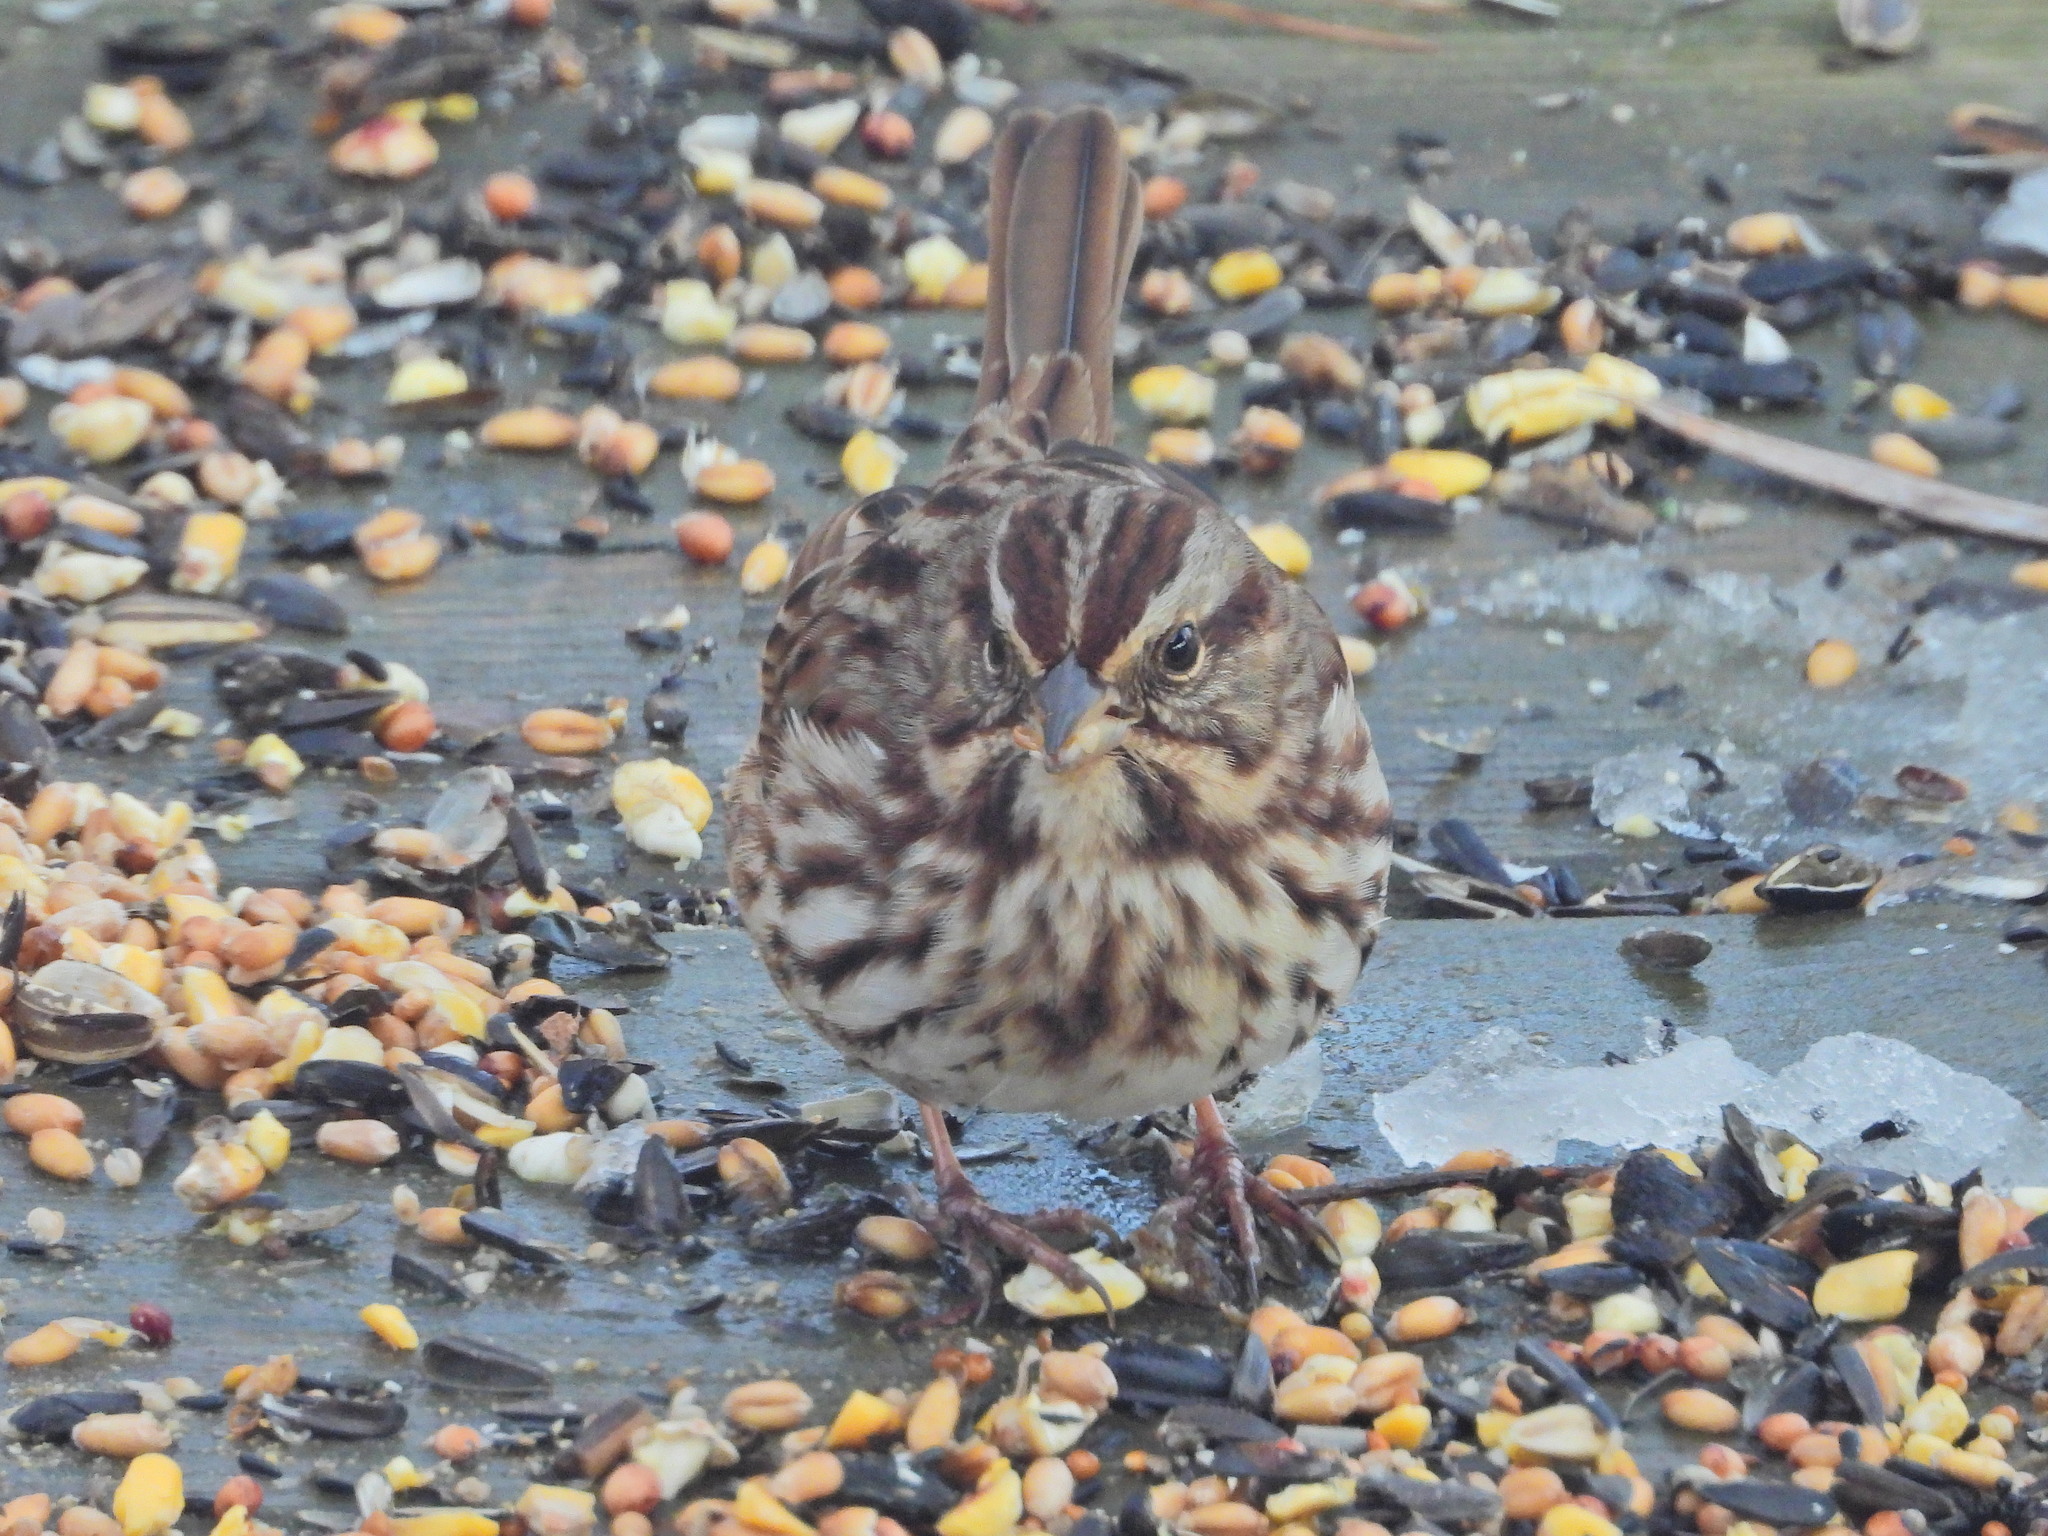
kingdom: Animalia
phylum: Chordata
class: Aves
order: Passeriformes
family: Passerellidae
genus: Melospiza
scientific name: Melospiza melodia
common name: Song sparrow
